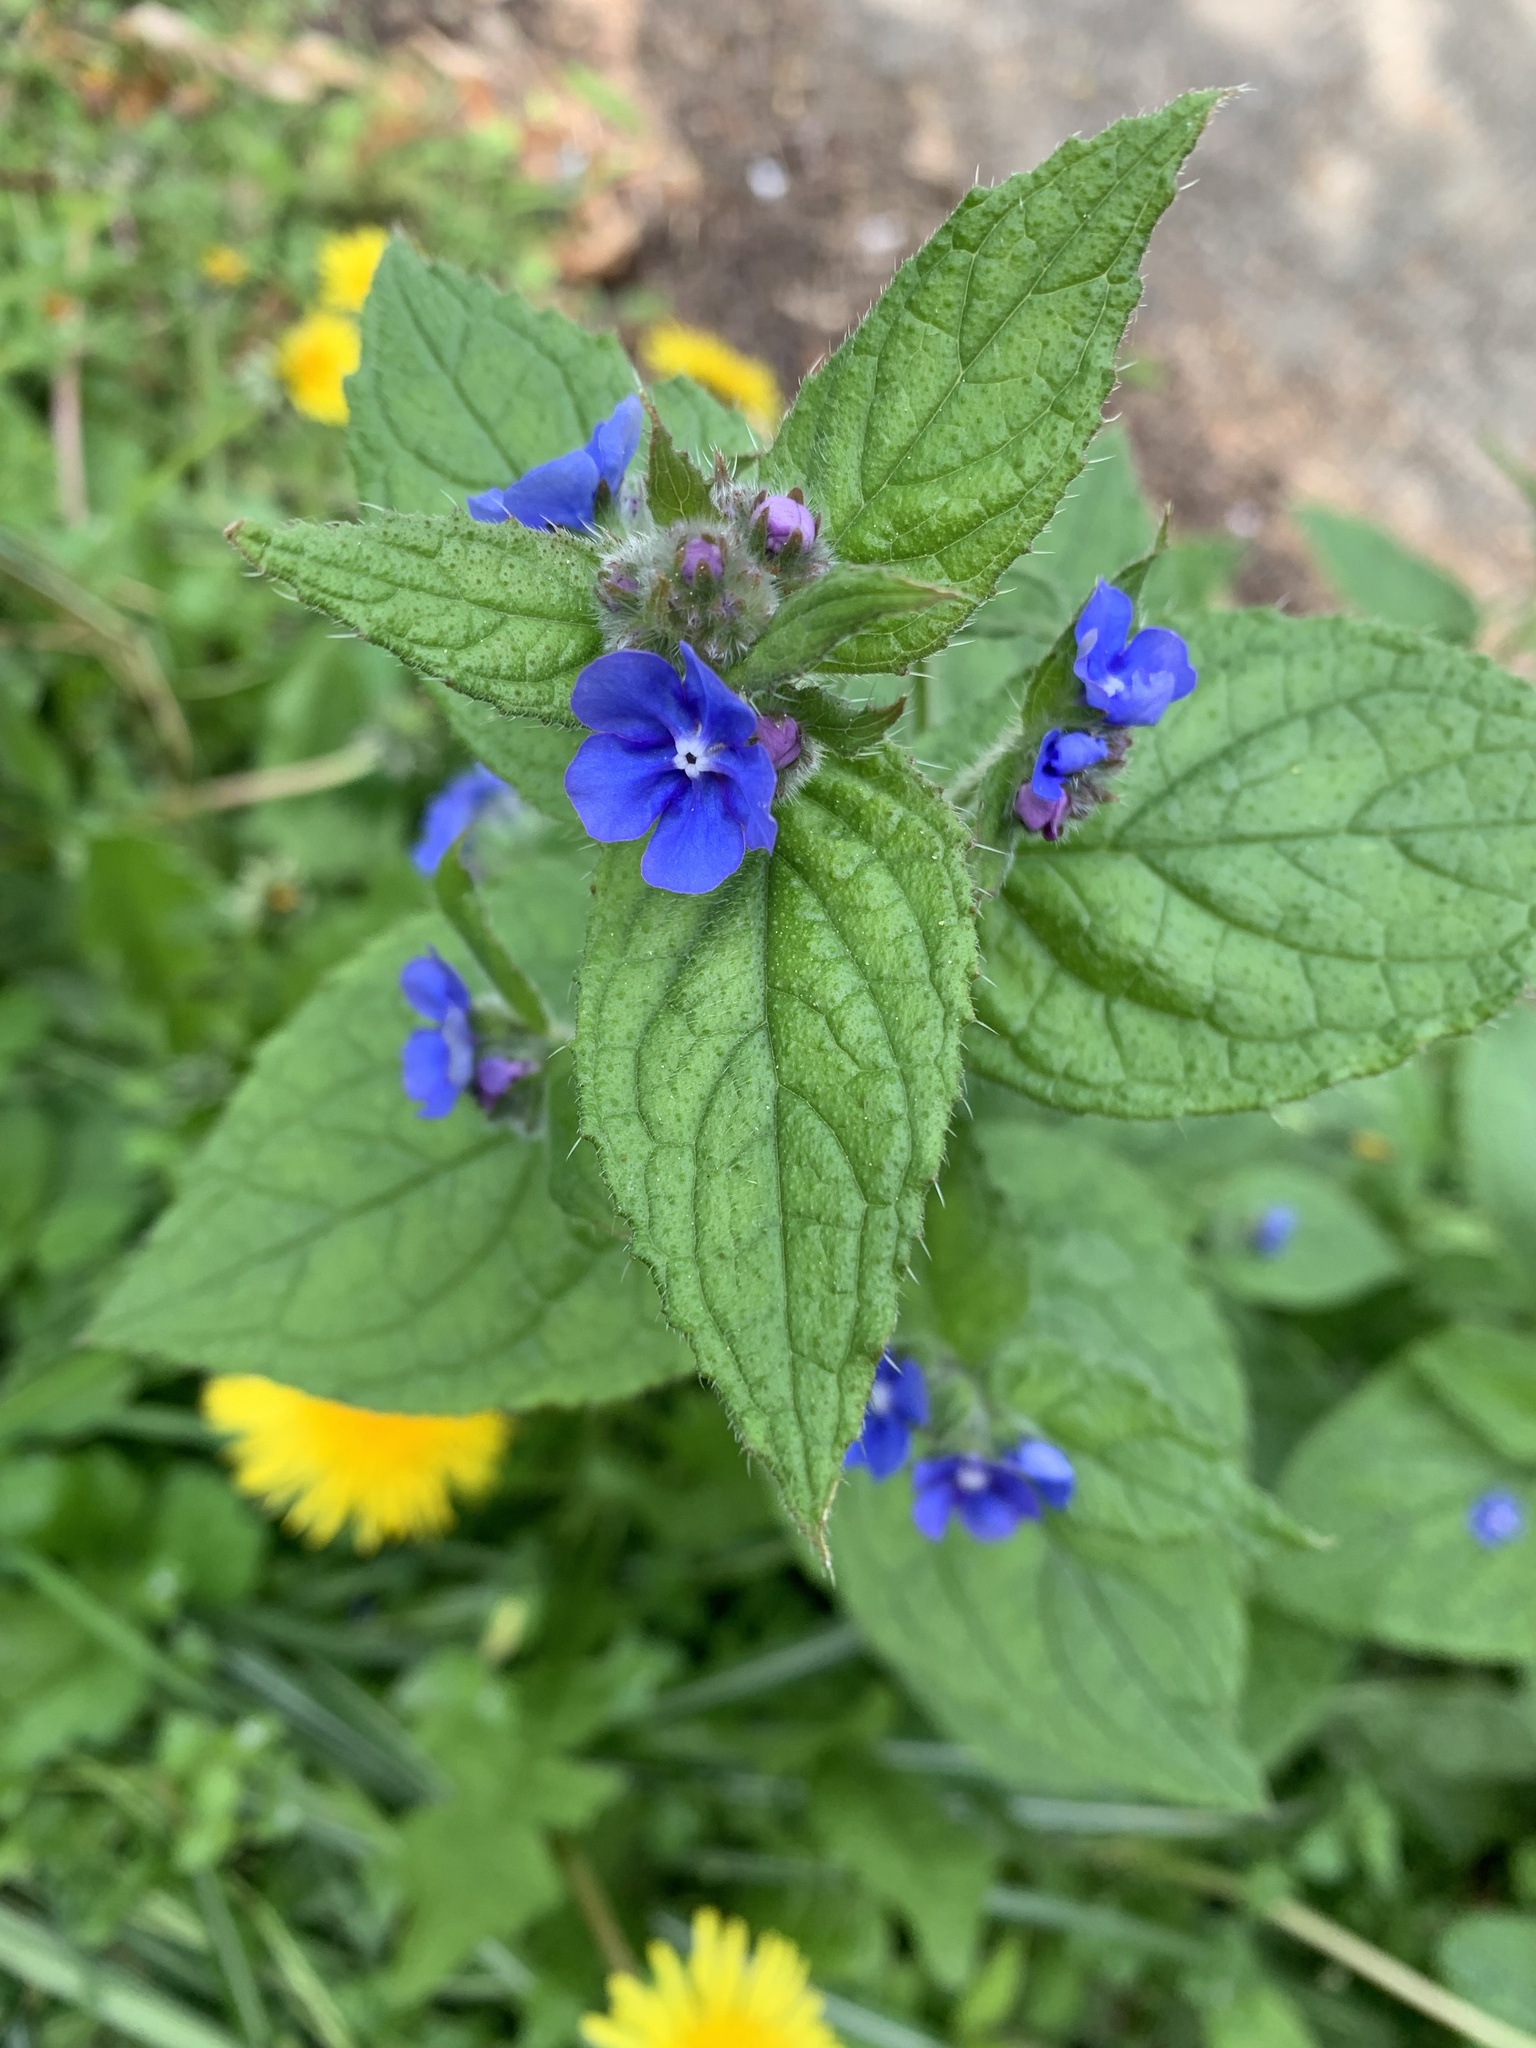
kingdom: Plantae
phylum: Tracheophyta
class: Magnoliopsida
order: Boraginales
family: Boraginaceae
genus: Pentaglottis
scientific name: Pentaglottis sempervirens
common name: Green alkanet
